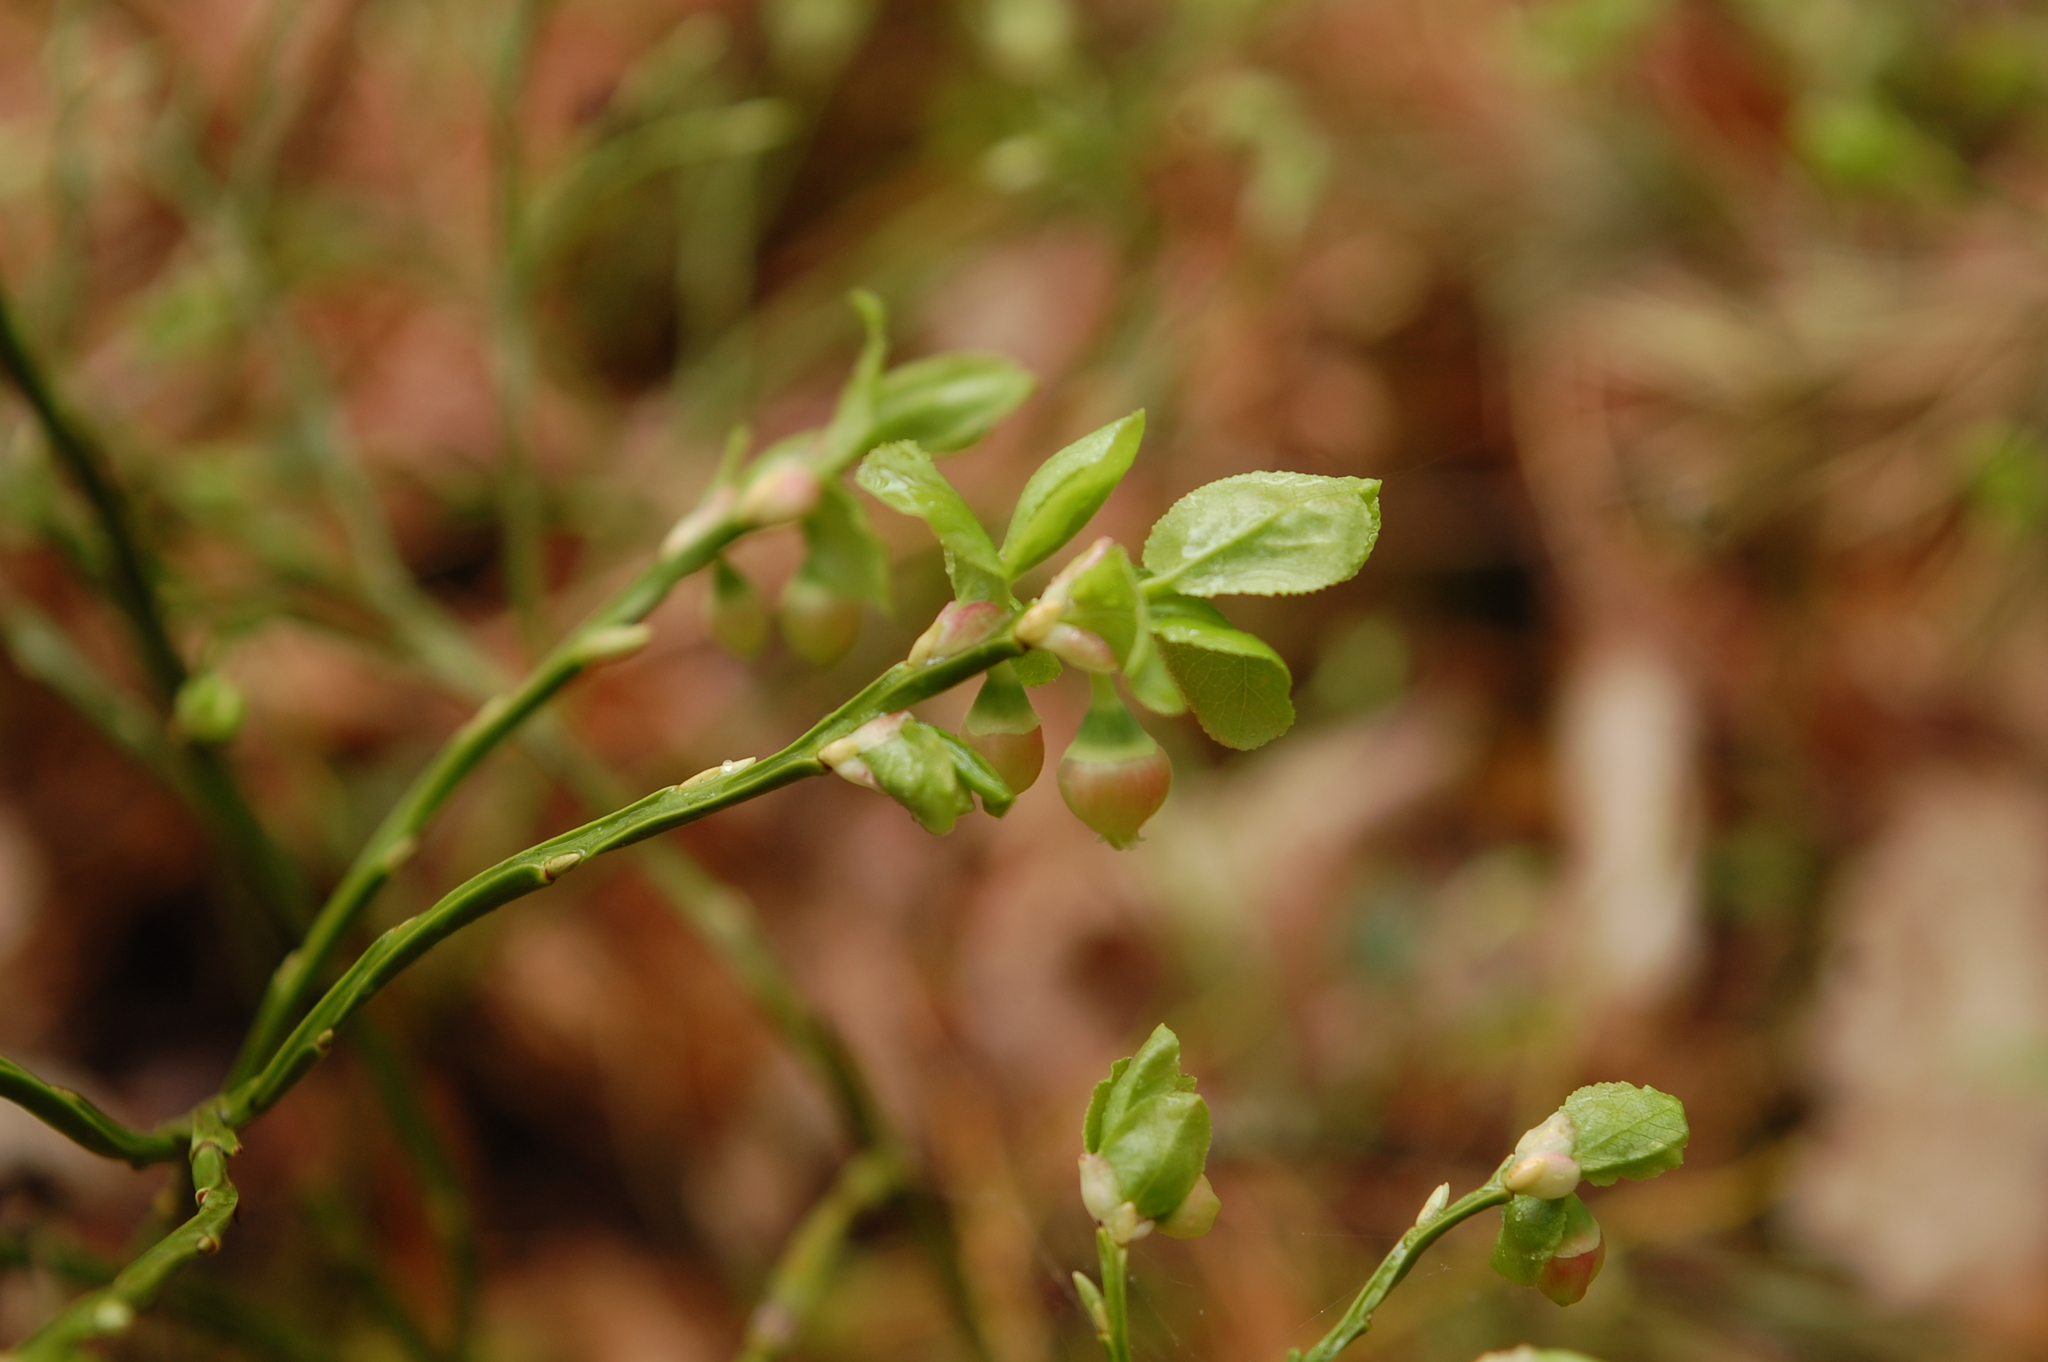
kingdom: Plantae
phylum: Tracheophyta
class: Magnoliopsida
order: Ericales
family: Ericaceae
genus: Vaccinium
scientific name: Vaccinium myrtillus
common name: Bilberry
